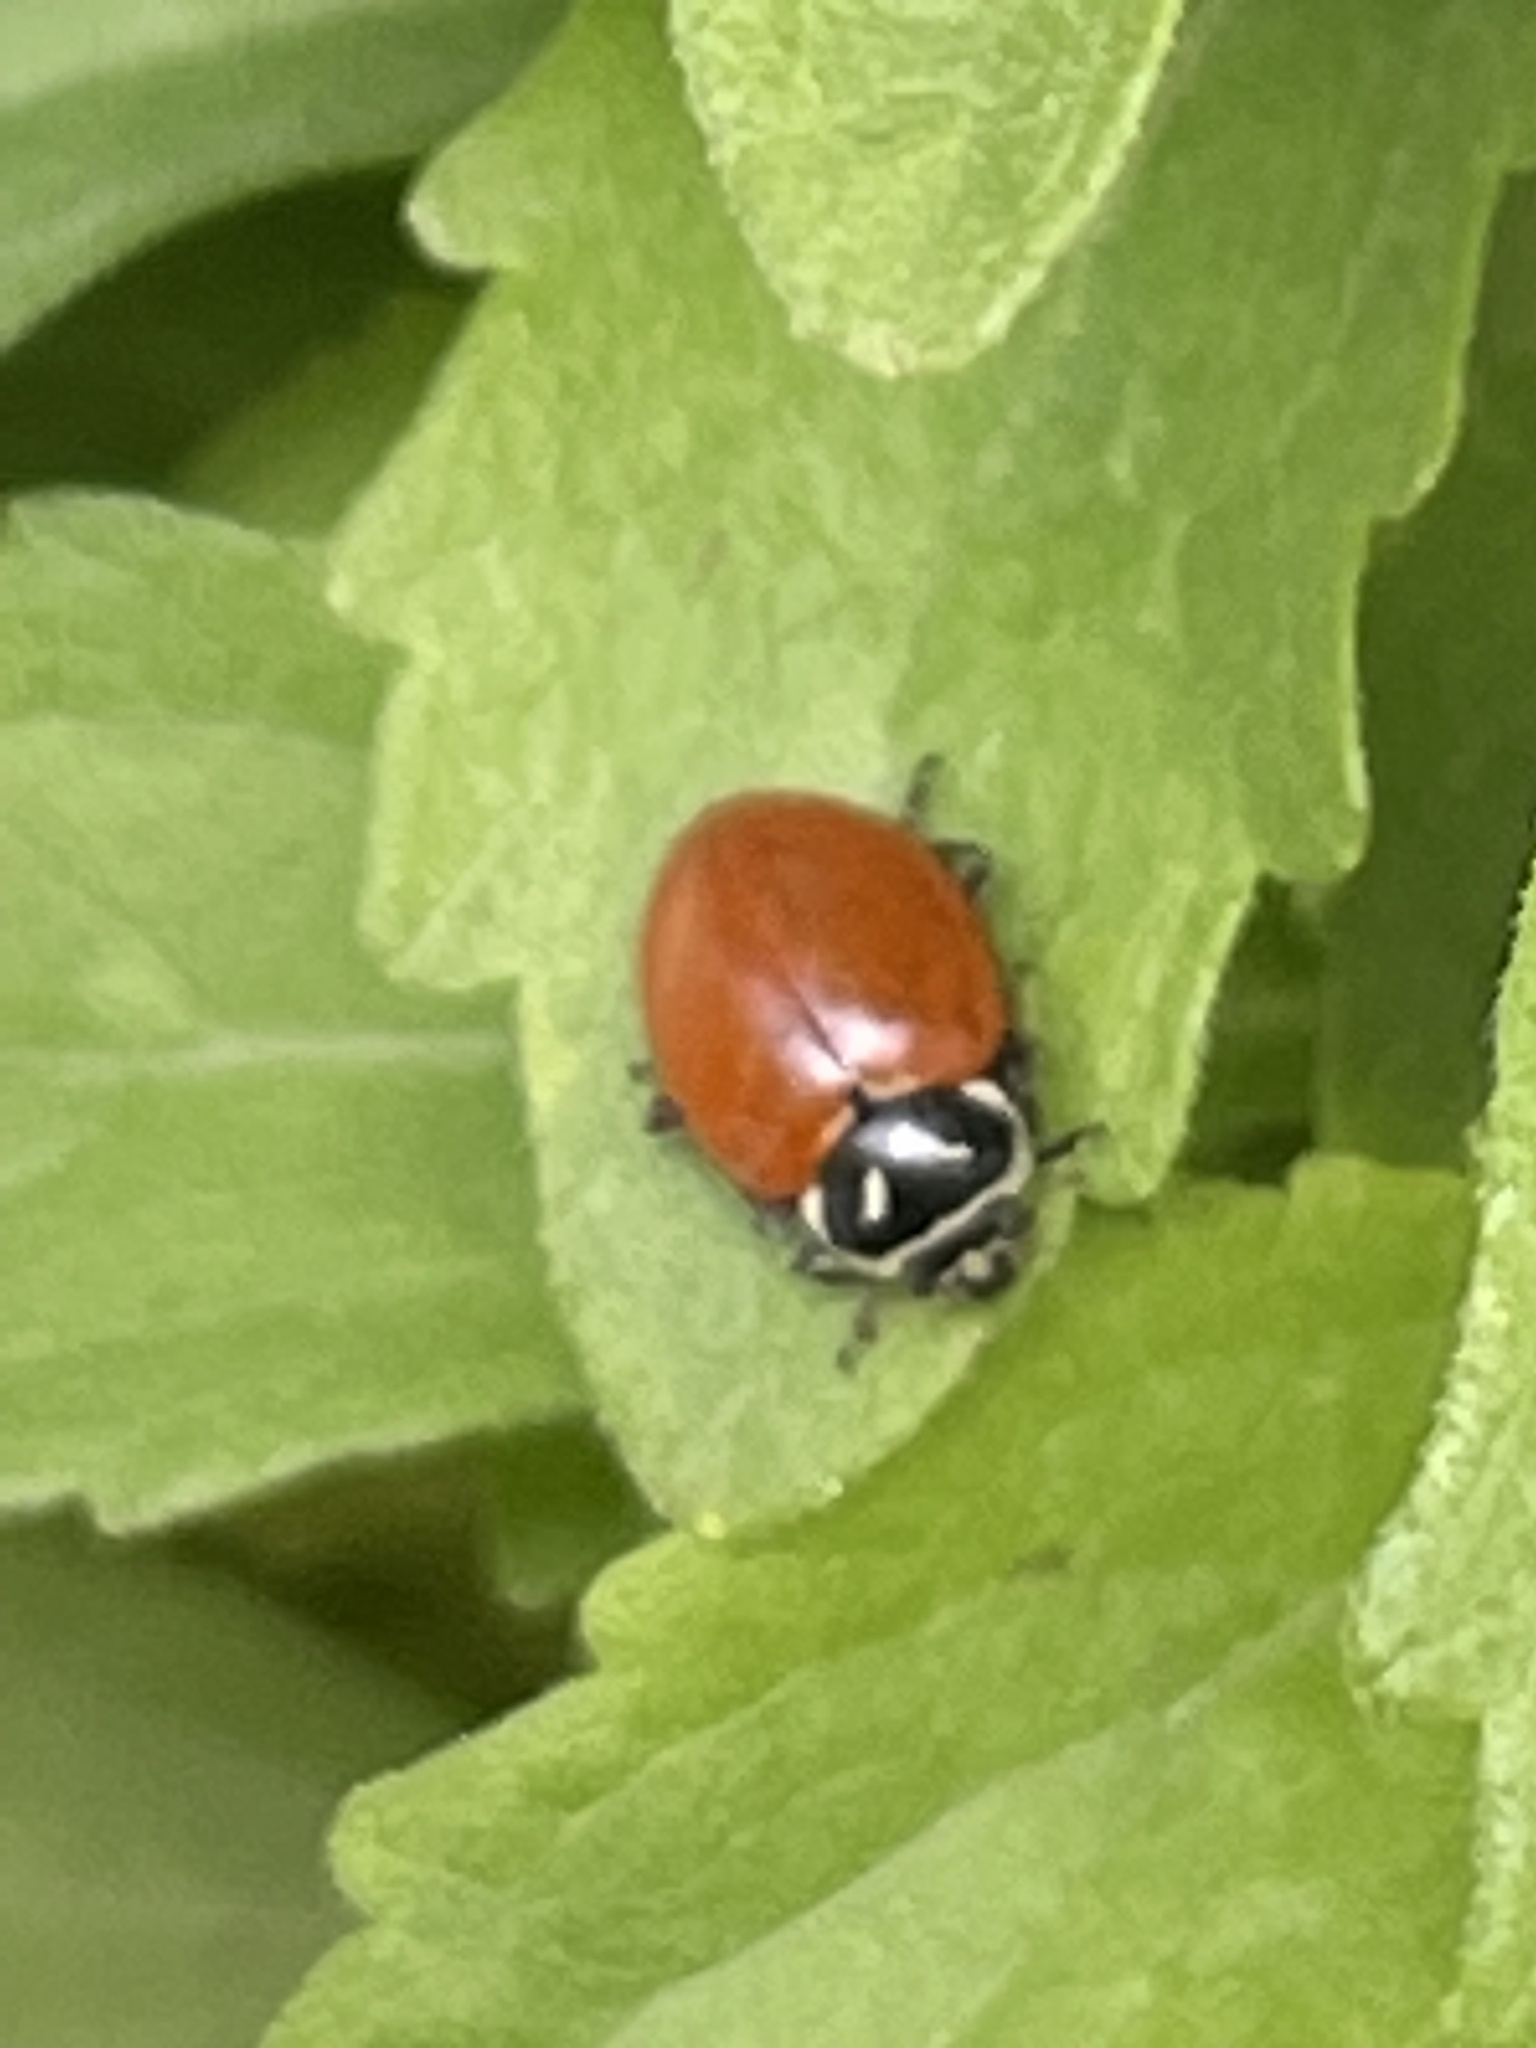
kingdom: Animalia
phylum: Arthropoda
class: Insecta
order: Coleoptera
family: Coccinellidae
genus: Hippodamia
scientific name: Hippodamia convergens
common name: Convergent lady beetle
